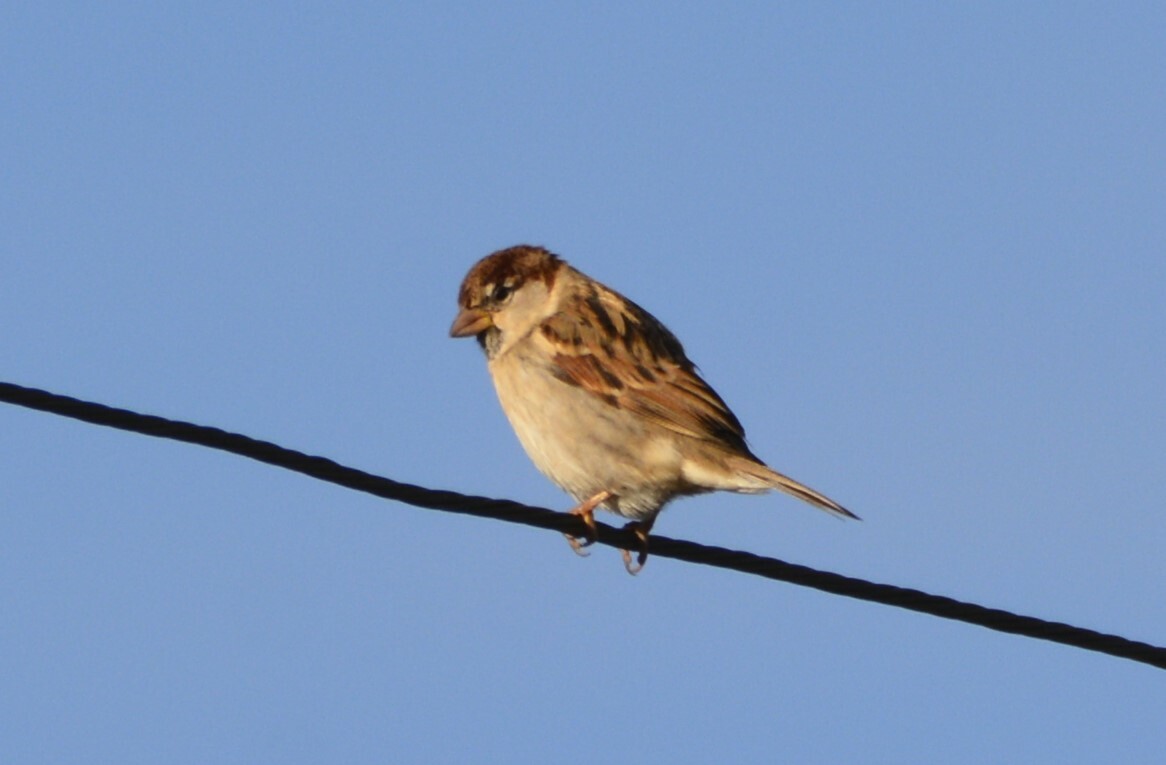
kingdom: Animalia
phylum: Chordata
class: Aves
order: Passeriformes
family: Passeridae
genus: Passer
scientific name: Passer italiae
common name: Italian sparrow
